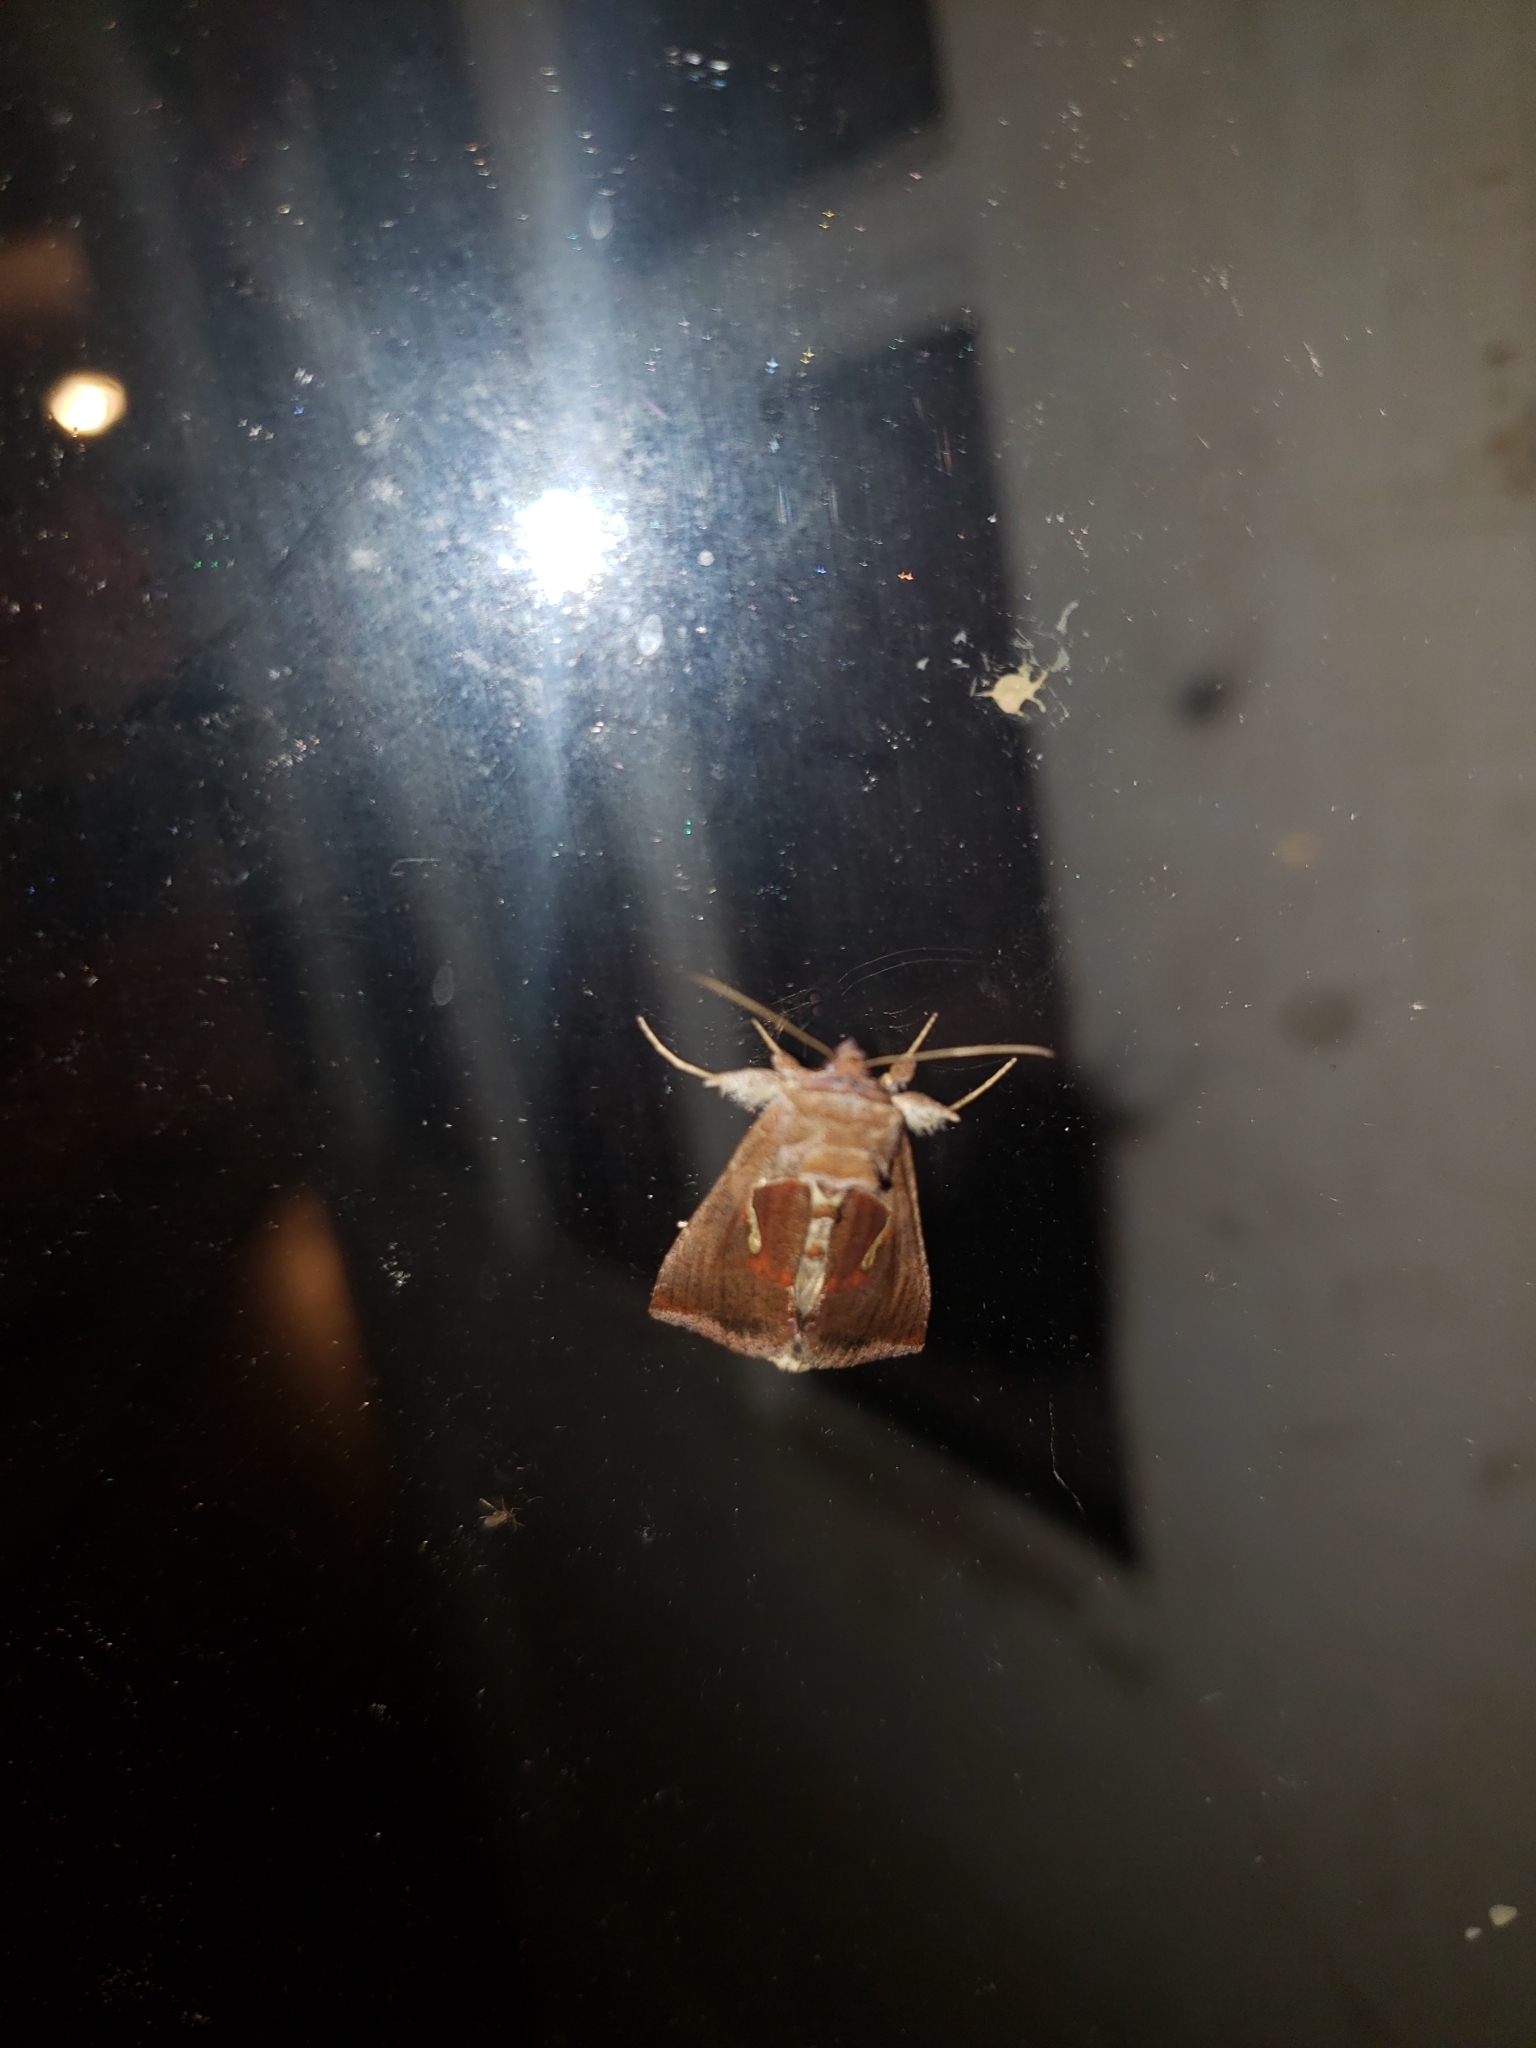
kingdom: Animalia
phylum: Arthropoda
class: Insecta
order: Lepidoptera
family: Noctuidae
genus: Anagrapha
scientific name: Anagrapha falcifera
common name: Celery looper
